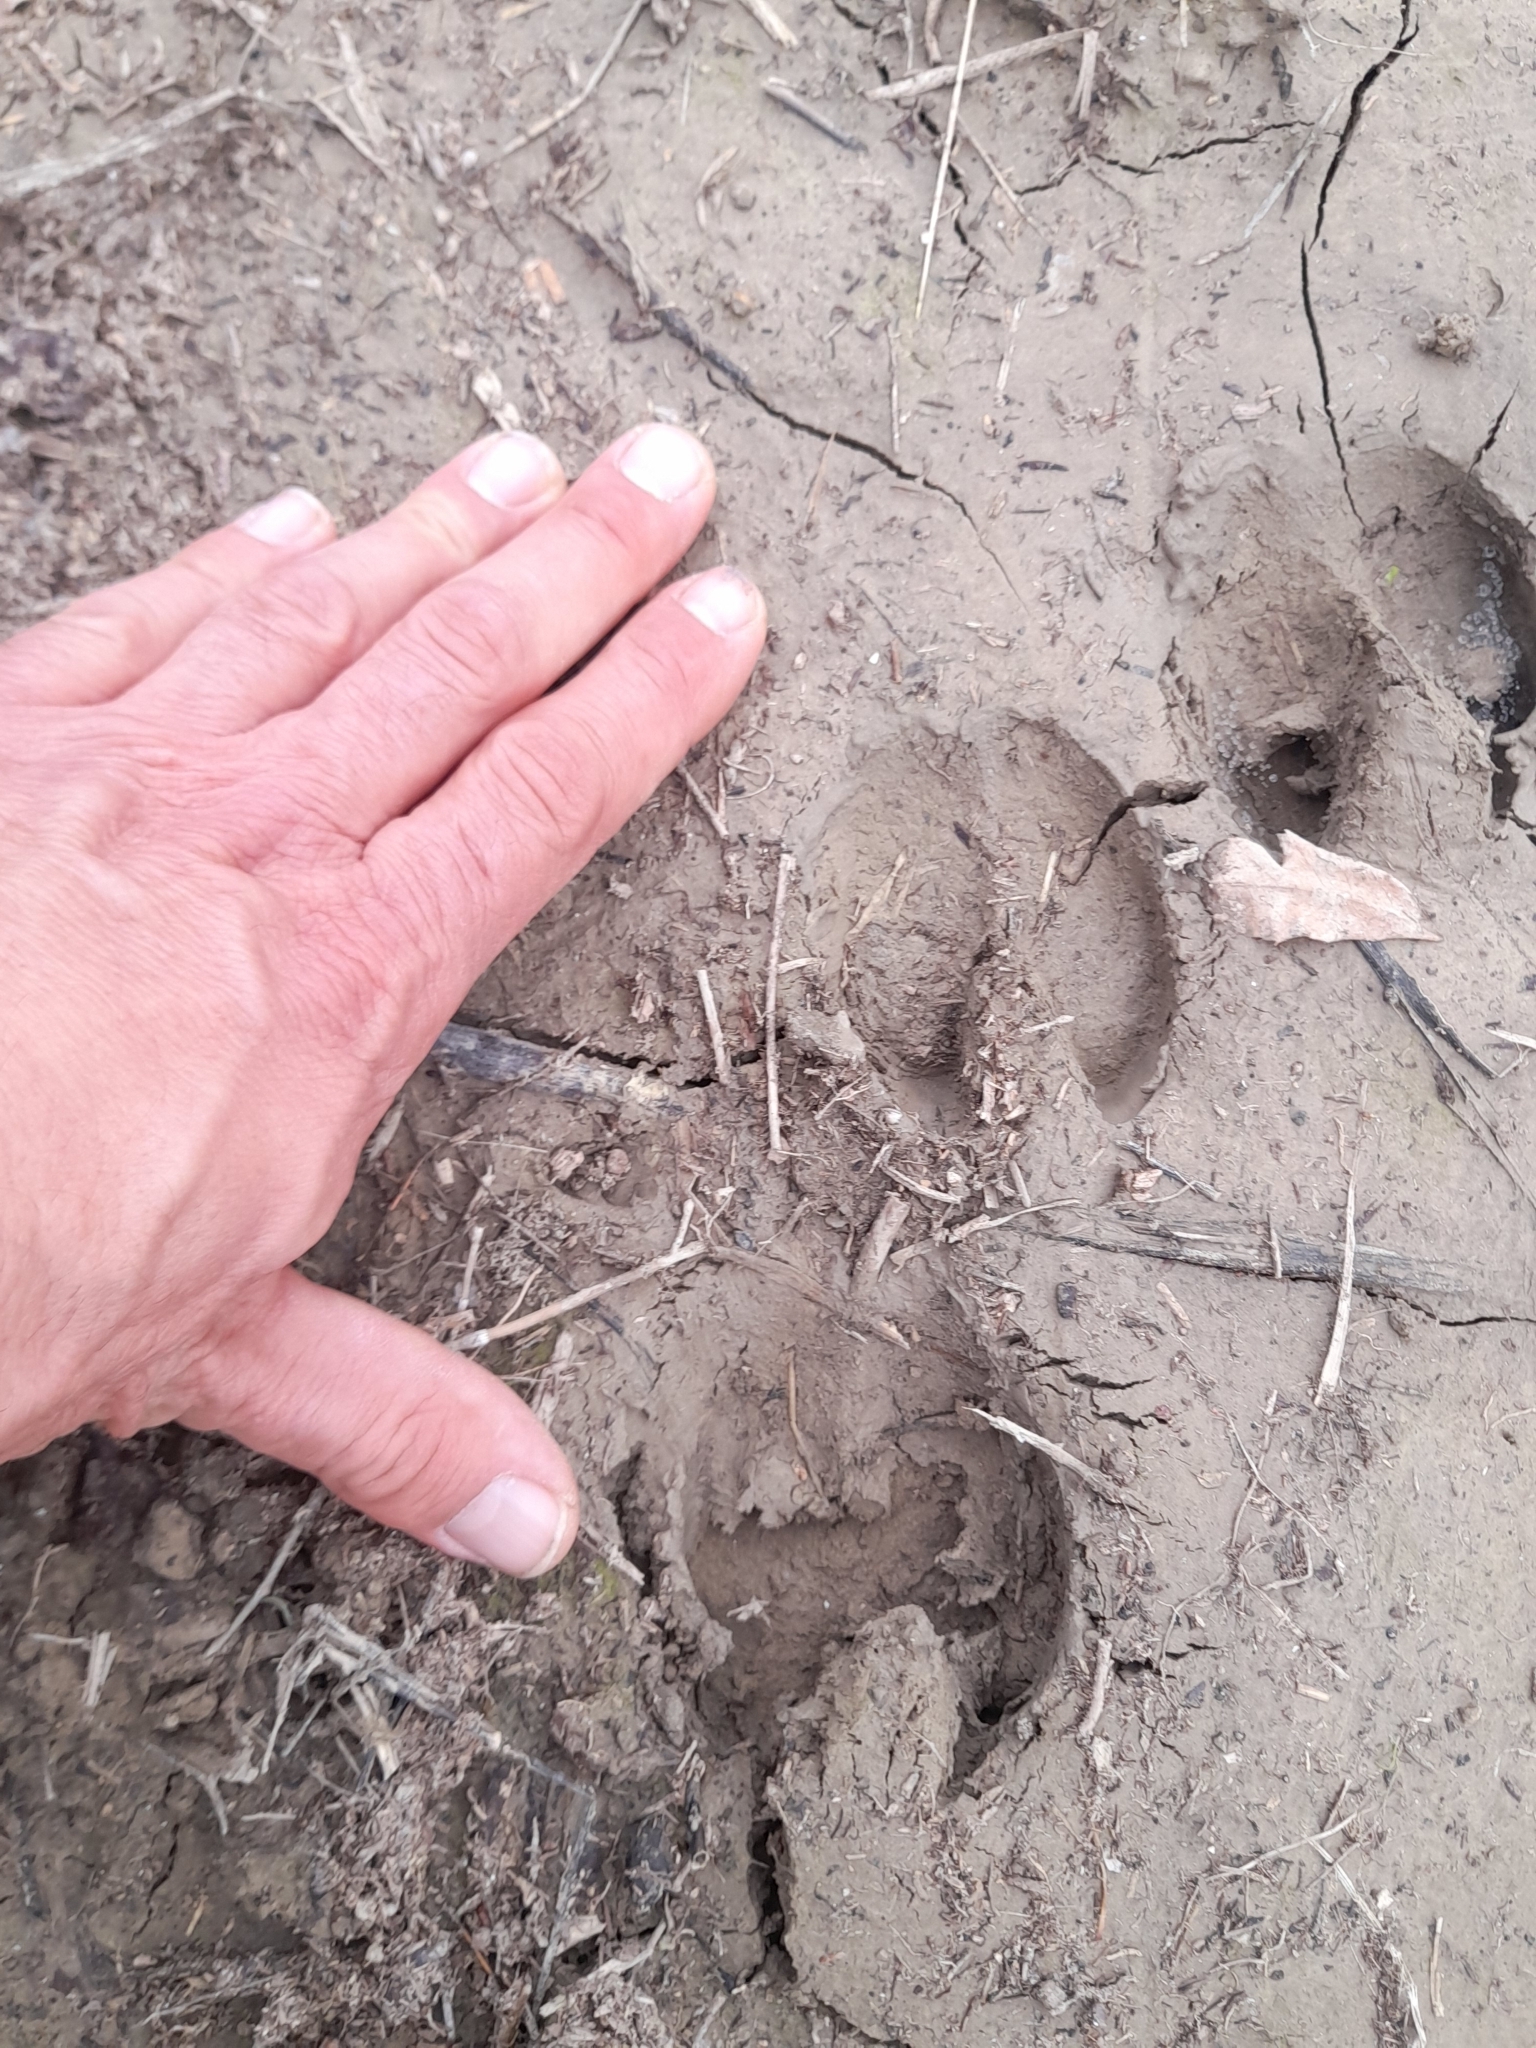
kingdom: Animalia
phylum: Chordata
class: Mammalia
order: Artiodactyla
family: Suidae
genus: Sus
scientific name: Sus scrofa
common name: Wild boar
